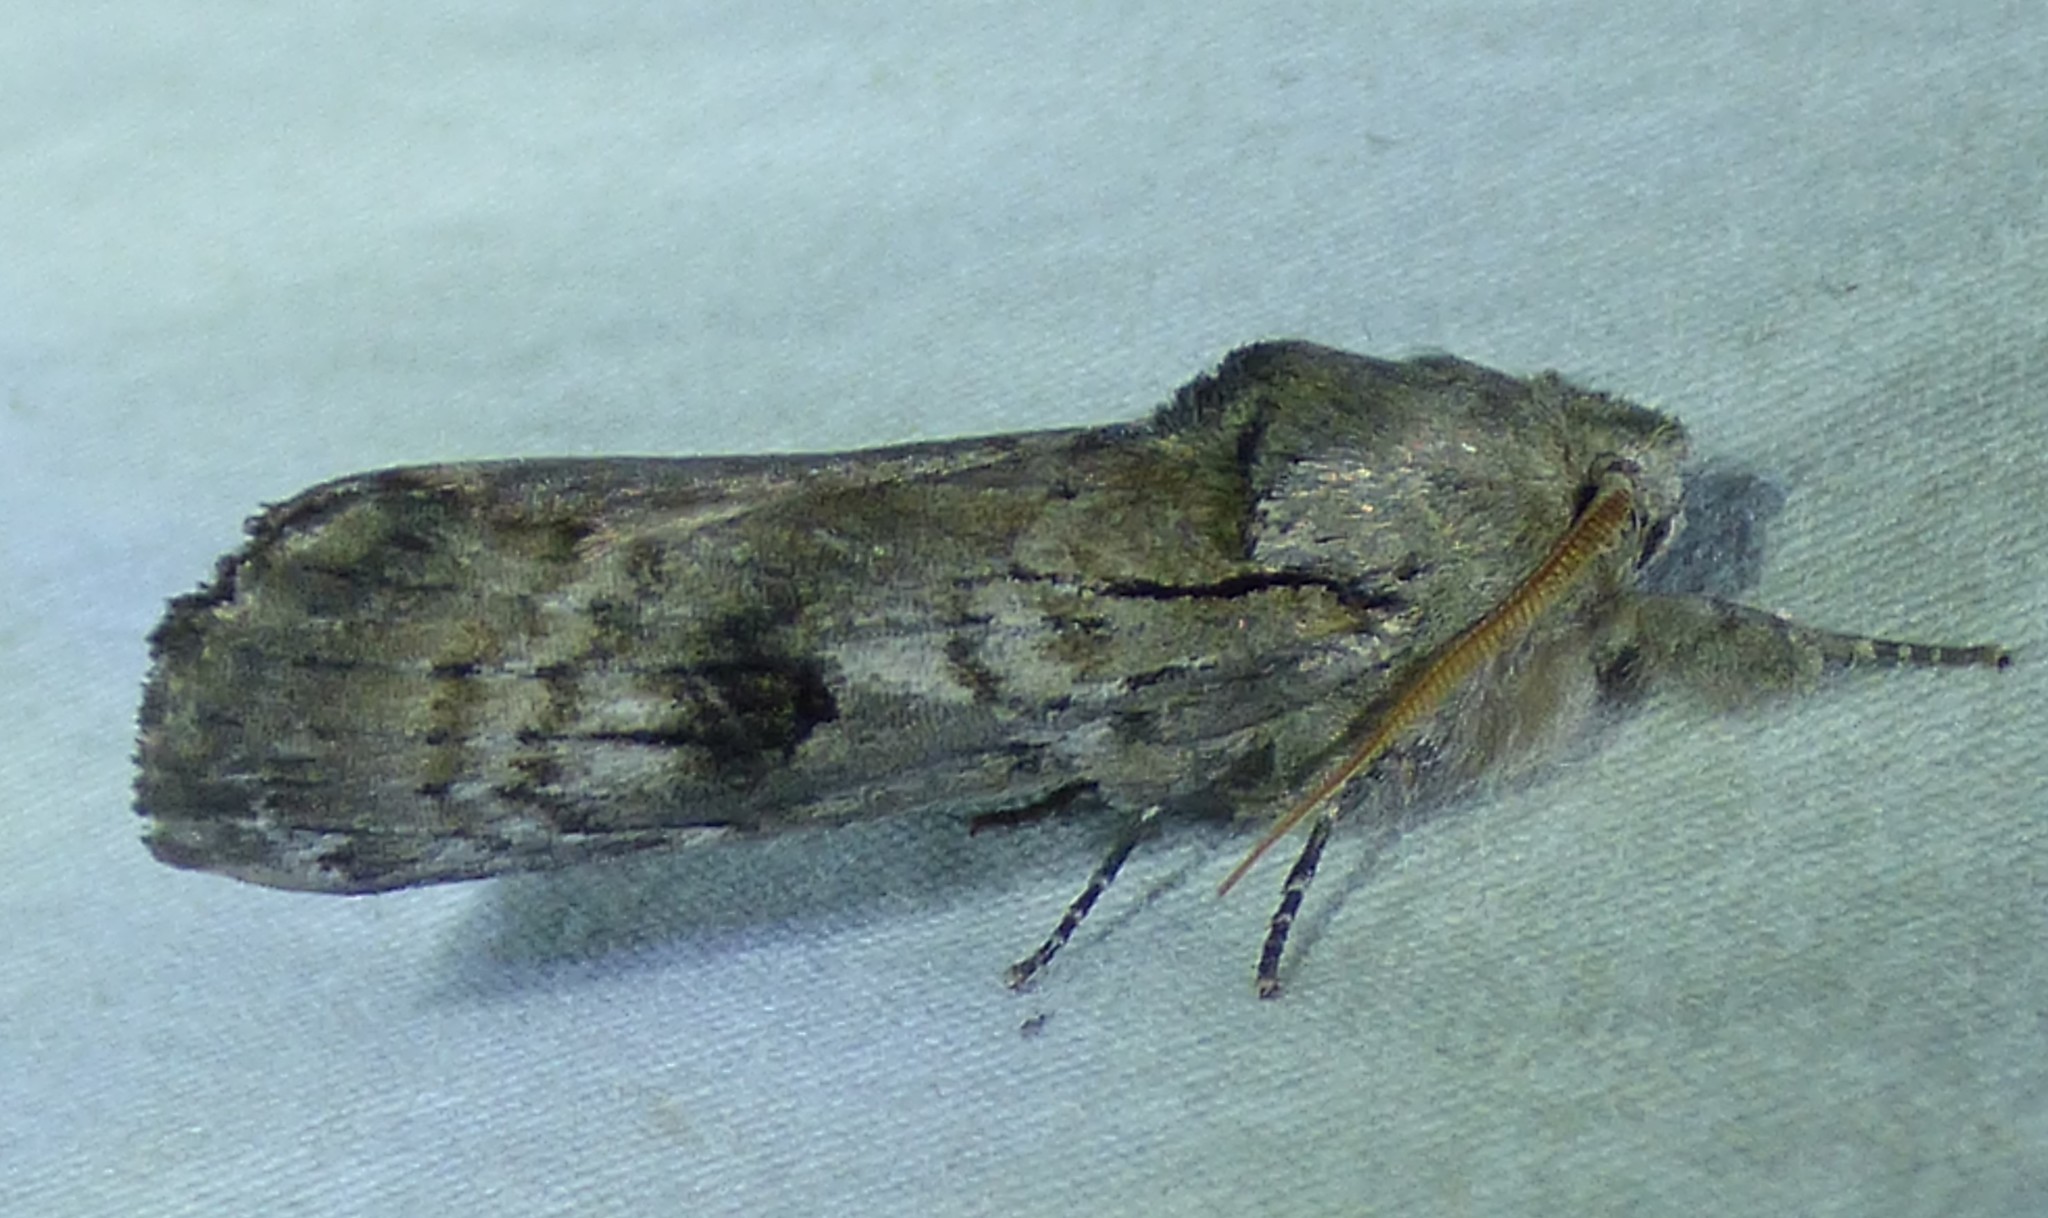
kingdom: Animalia
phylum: Arthropoda
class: Insecta
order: Lepidoptera
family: Notodontidae
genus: Schizura
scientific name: Schizura
